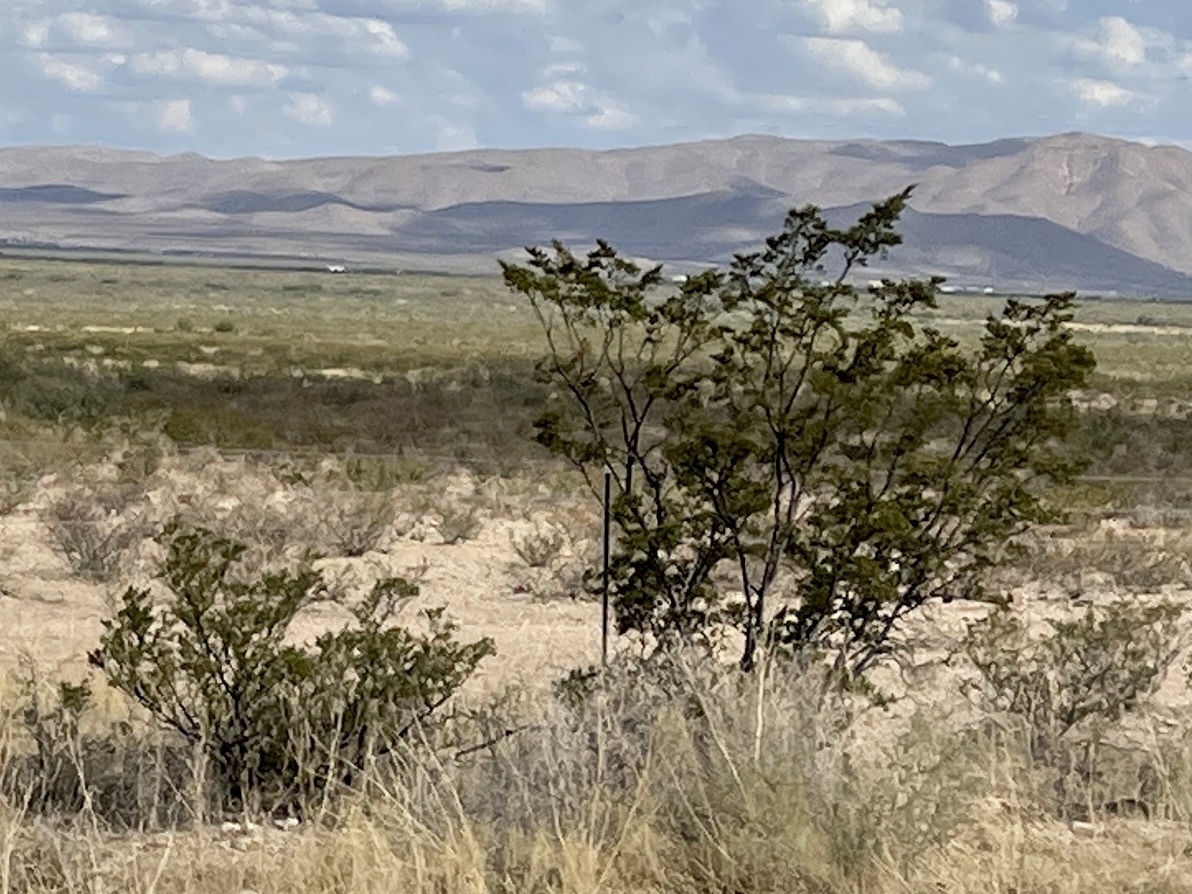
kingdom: Plantae
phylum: Tracheophyta
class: Magnoliopsida
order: Zygophyllales
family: Zygophyllaceae
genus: Larrea
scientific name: Larrea tridentata
